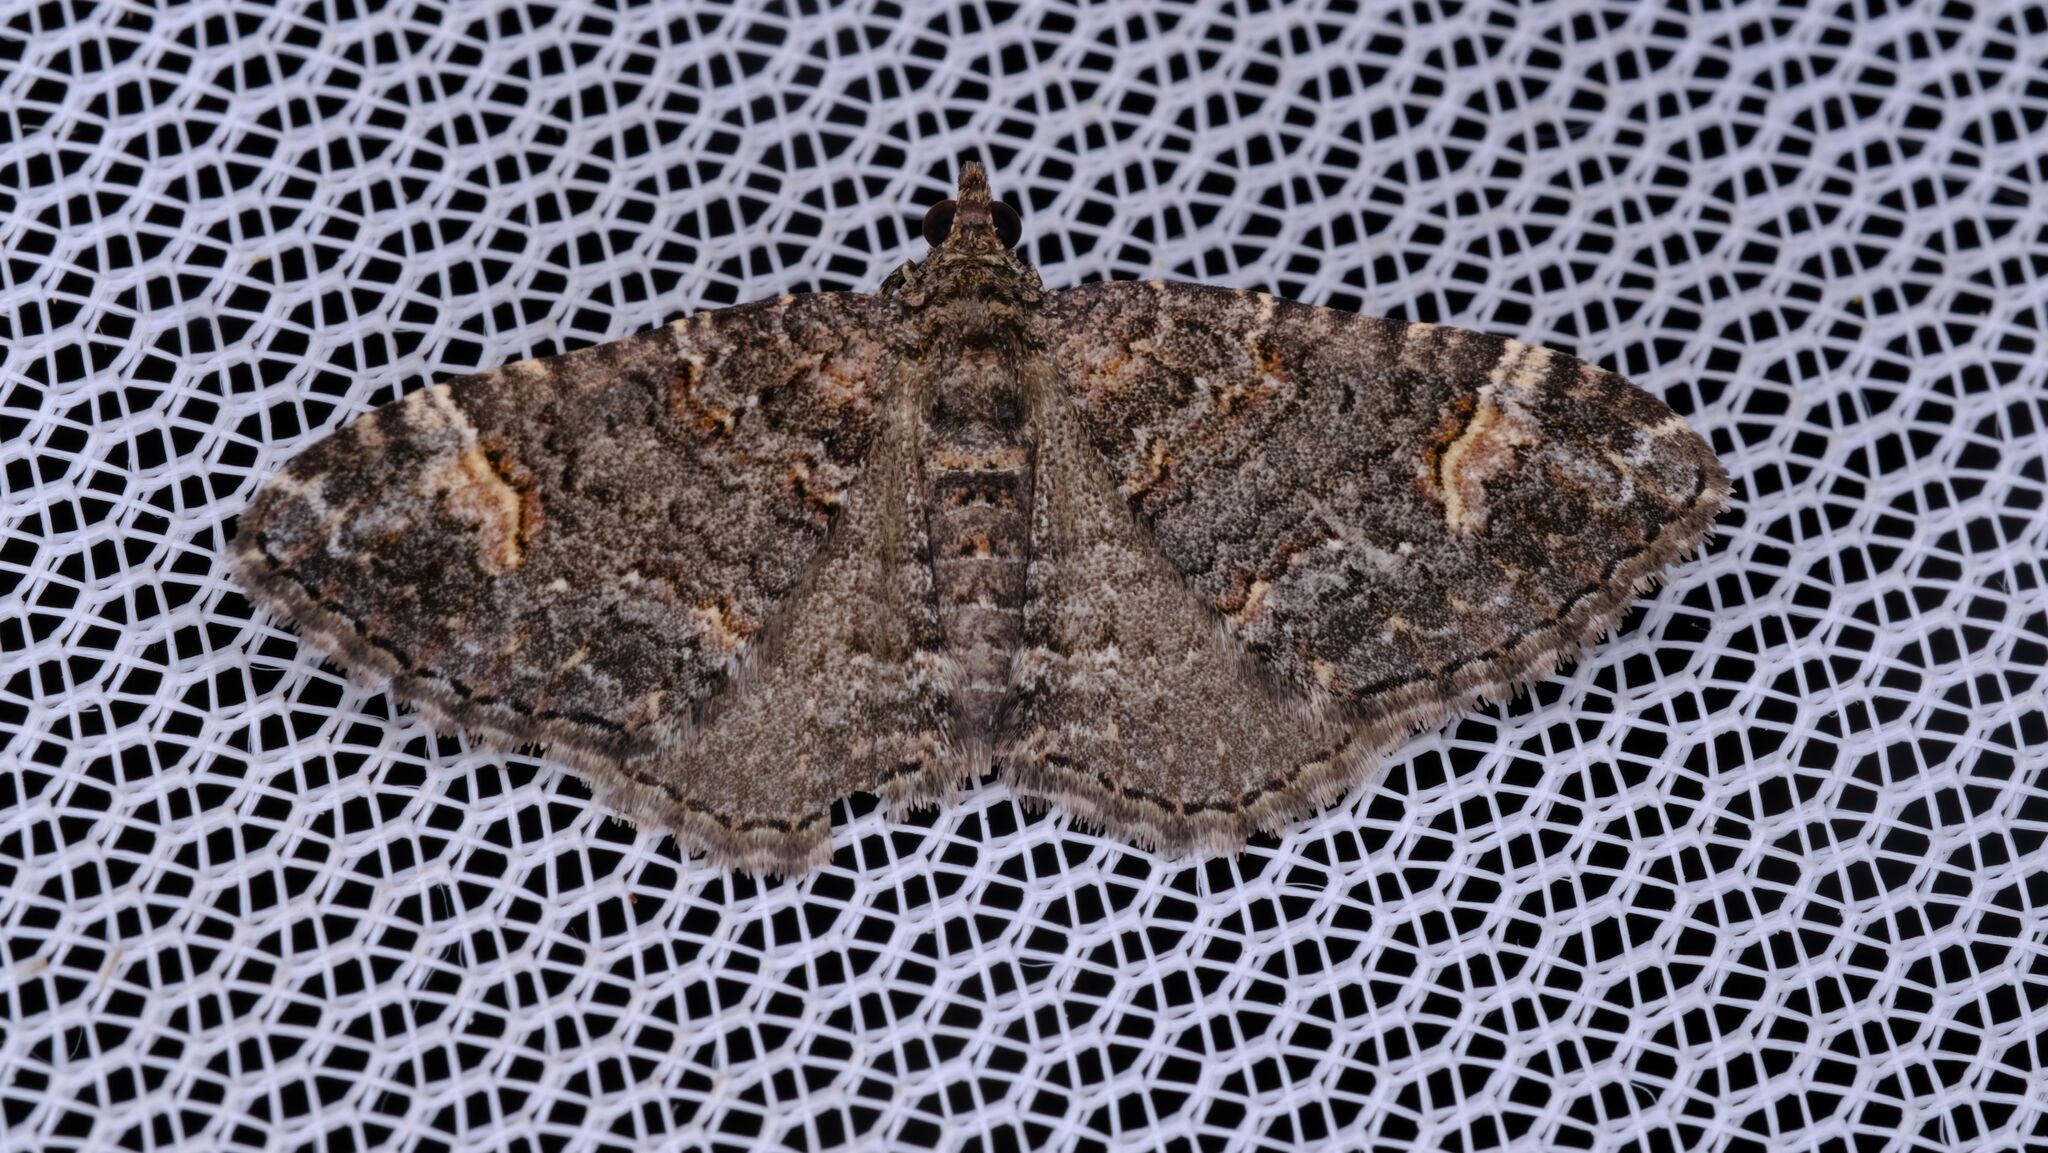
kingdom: Animalia
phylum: Arthropoda
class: Insecta
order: Lepidoptera
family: Geometridae
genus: Epyaxa
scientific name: Epyaxa sodaliata
